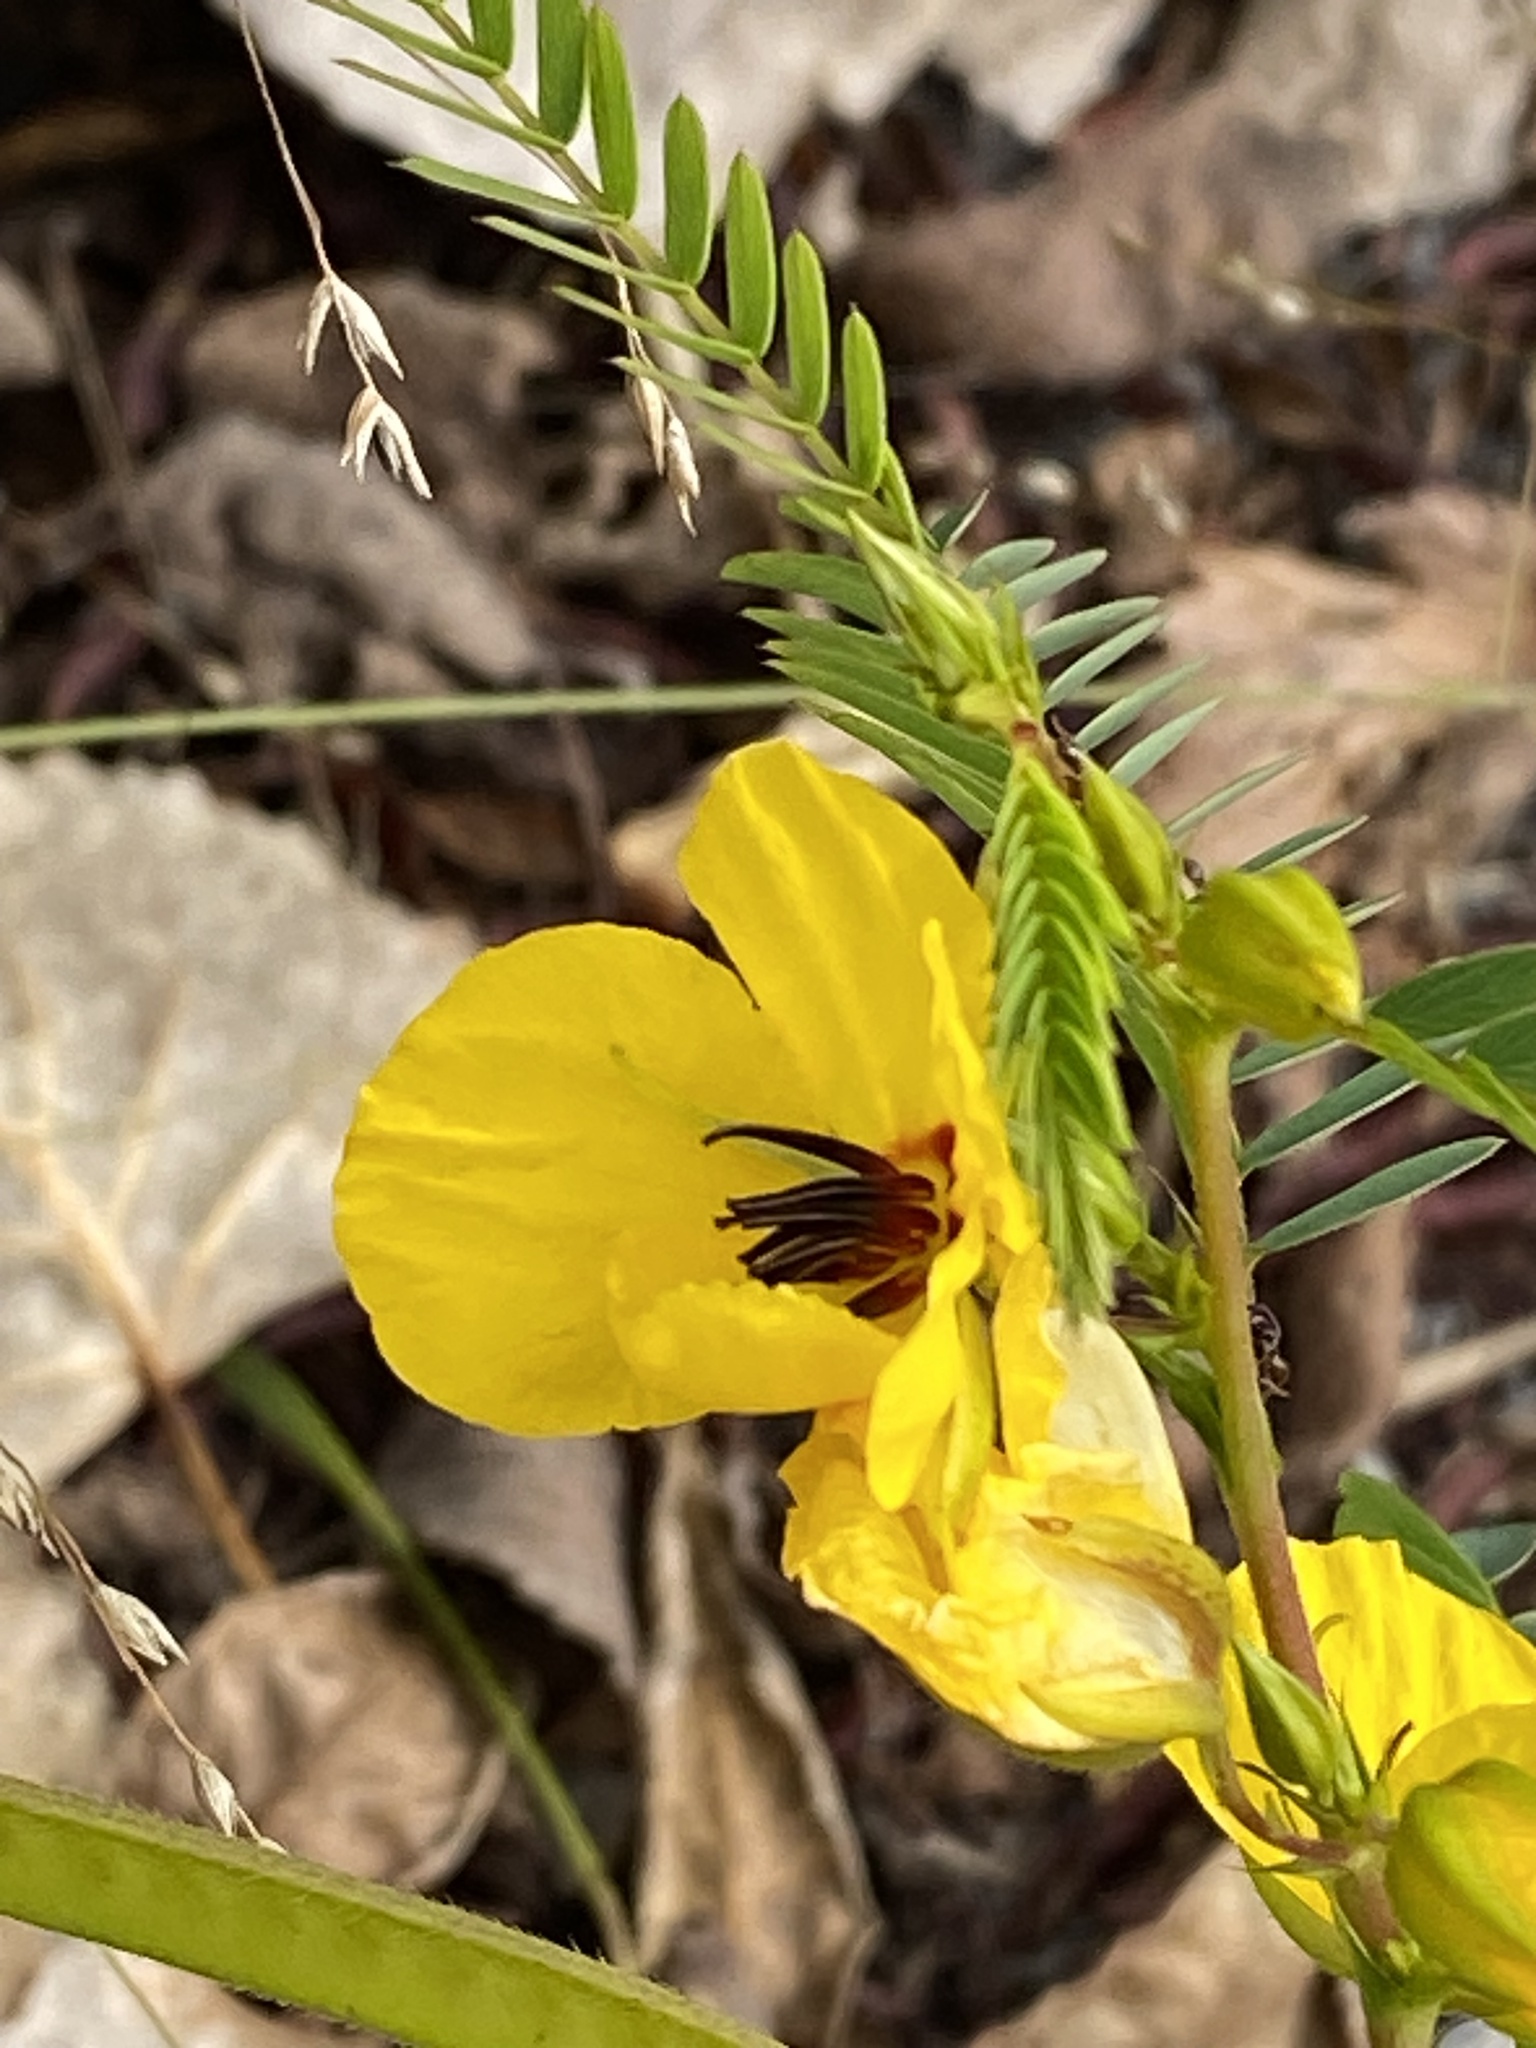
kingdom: Plantae
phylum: Tracheophyta
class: Magnoliopsida
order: Fabales
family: Fabaceae
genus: Chamaecrista
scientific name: Chamaecrista fasciculata
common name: Golden cassia
